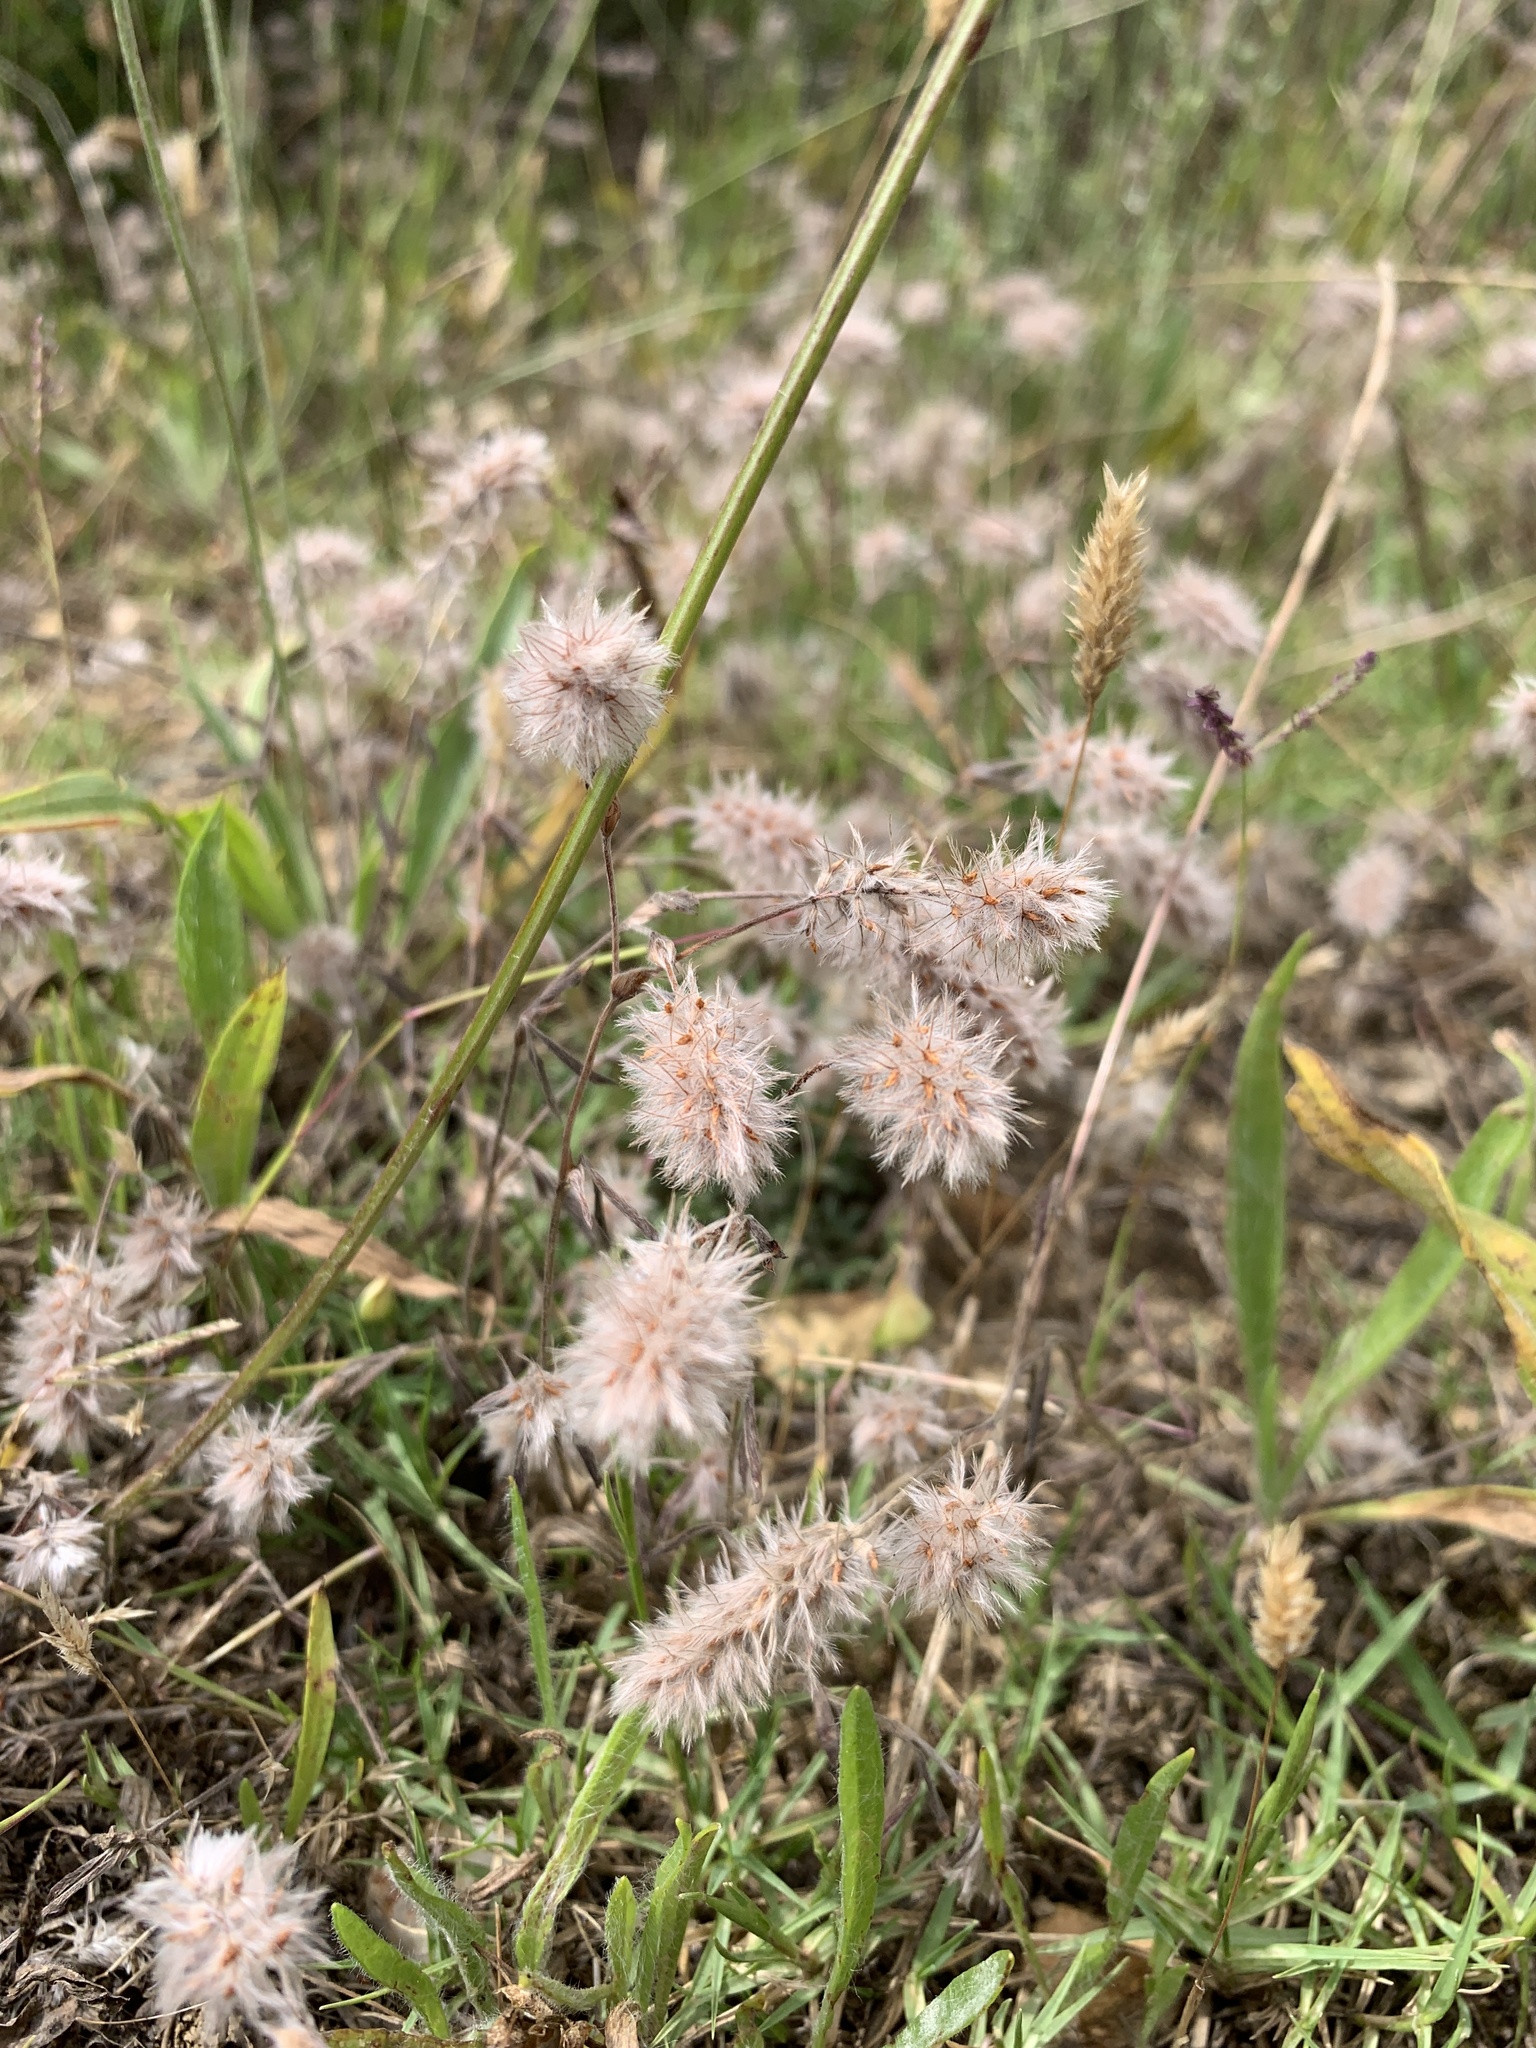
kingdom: Plantae
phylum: Tracheophyta
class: Magnoliopsida
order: Fabales
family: Fabaceae
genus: Trifolium
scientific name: Trifolium arvense
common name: Hare's-foot clover
